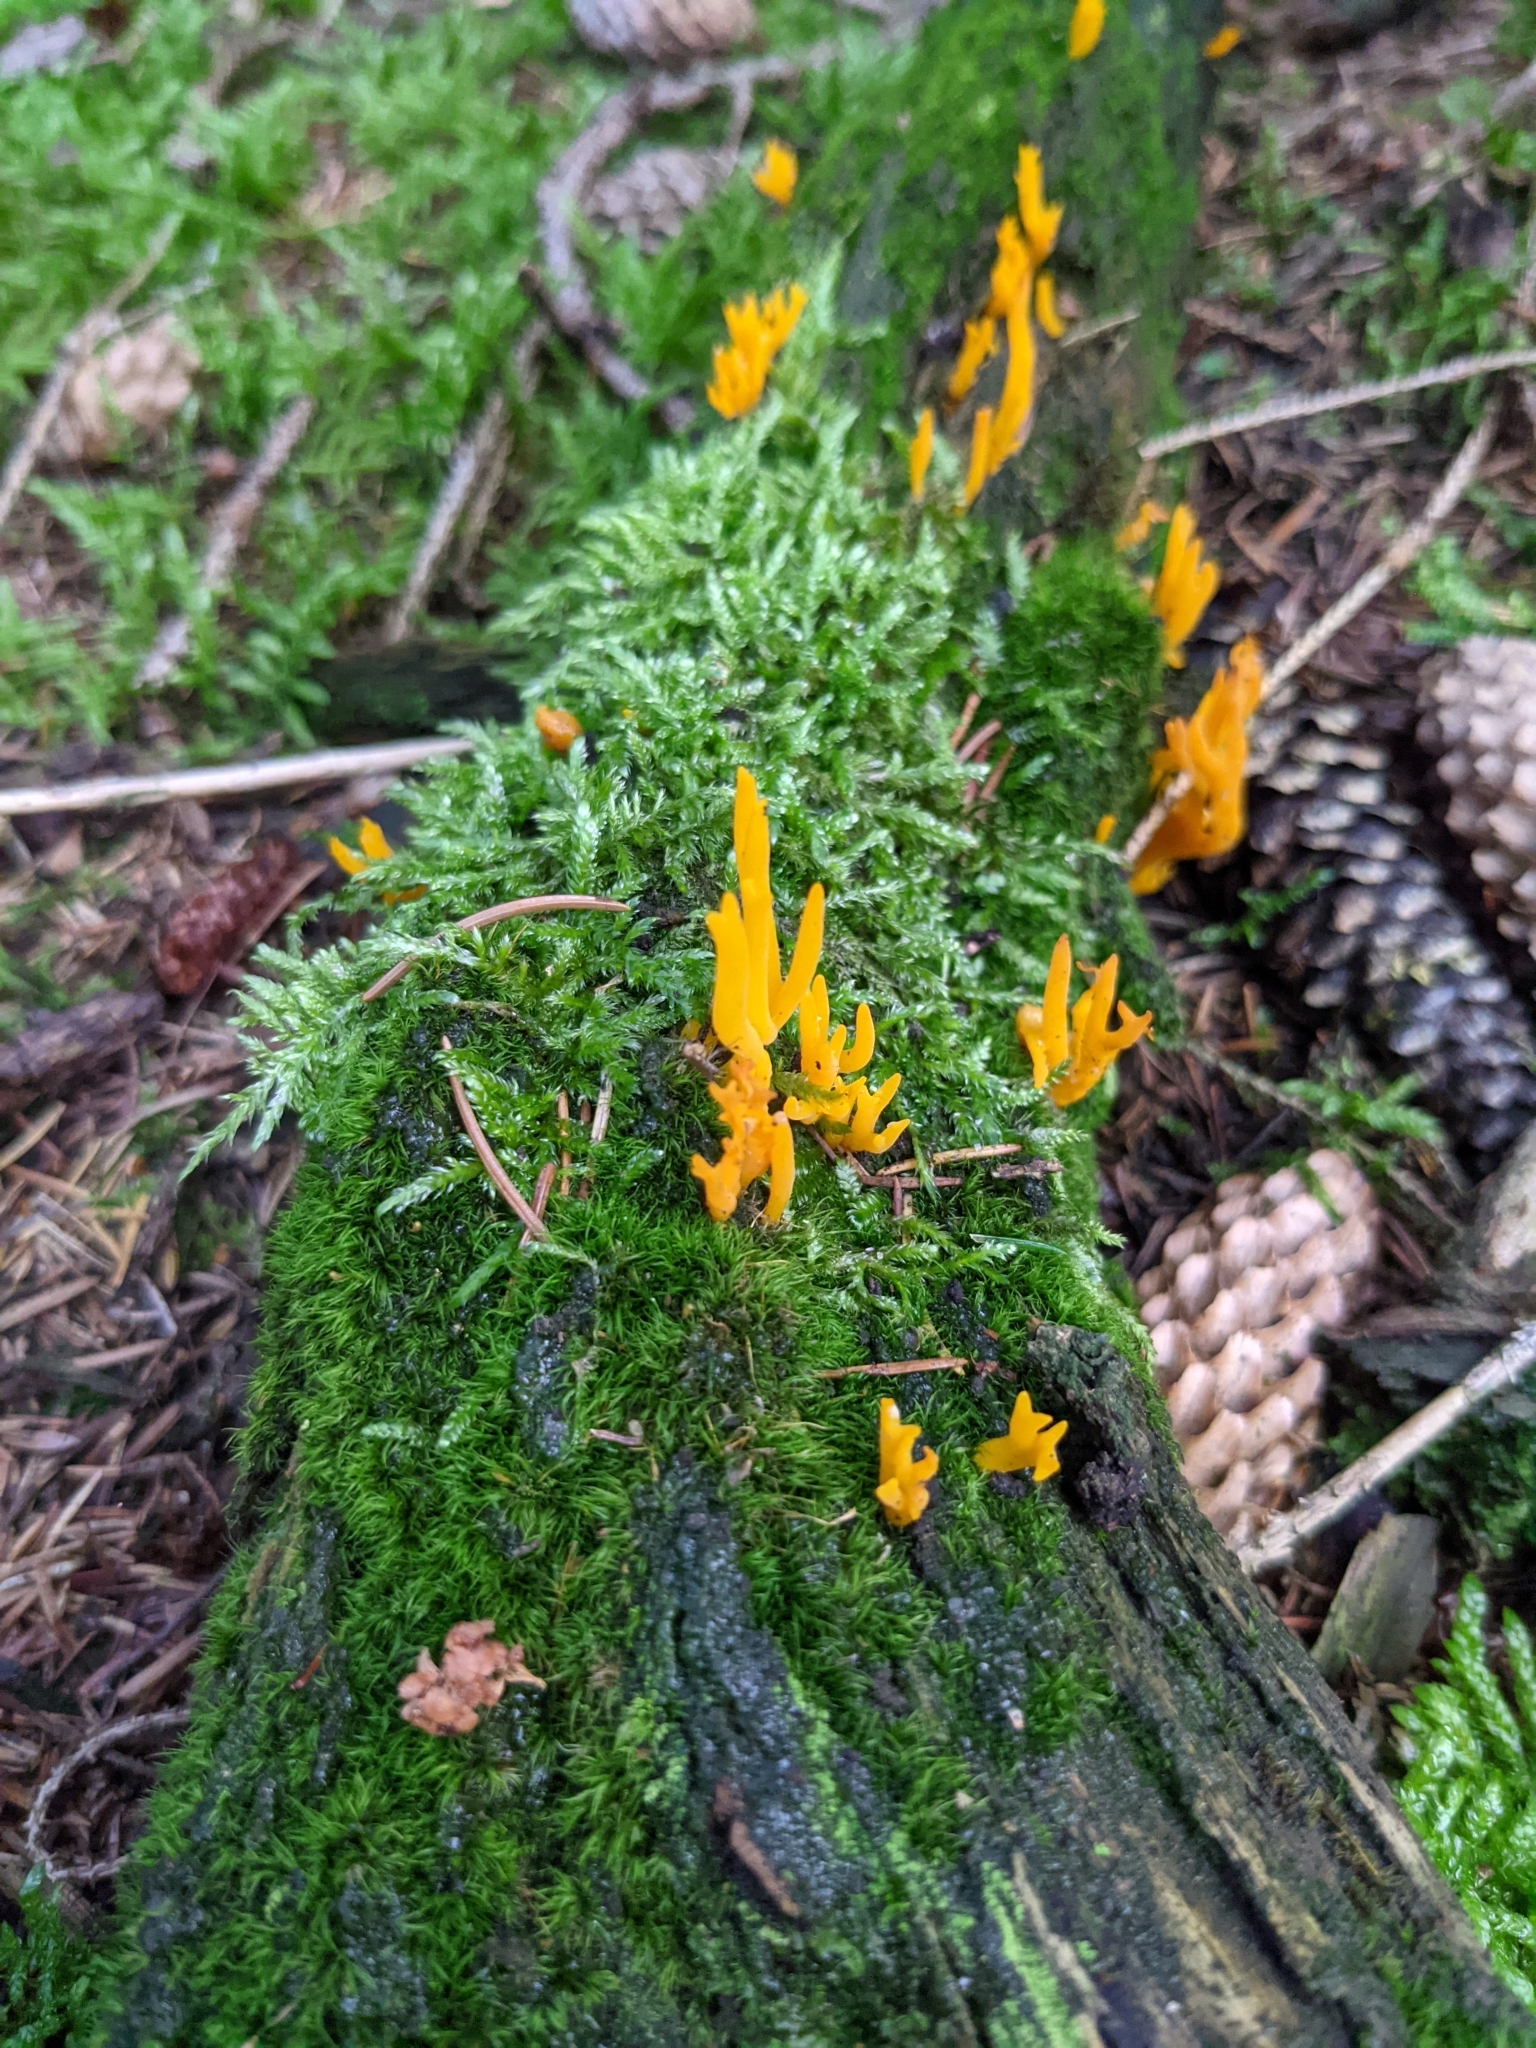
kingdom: Fungi
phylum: Basidiomycota
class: Dacrymycetes
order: Dacrymycetales
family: Dacrymycetaceae
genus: Calocera
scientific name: Calocera viscosa
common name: Yellow stagshorn
